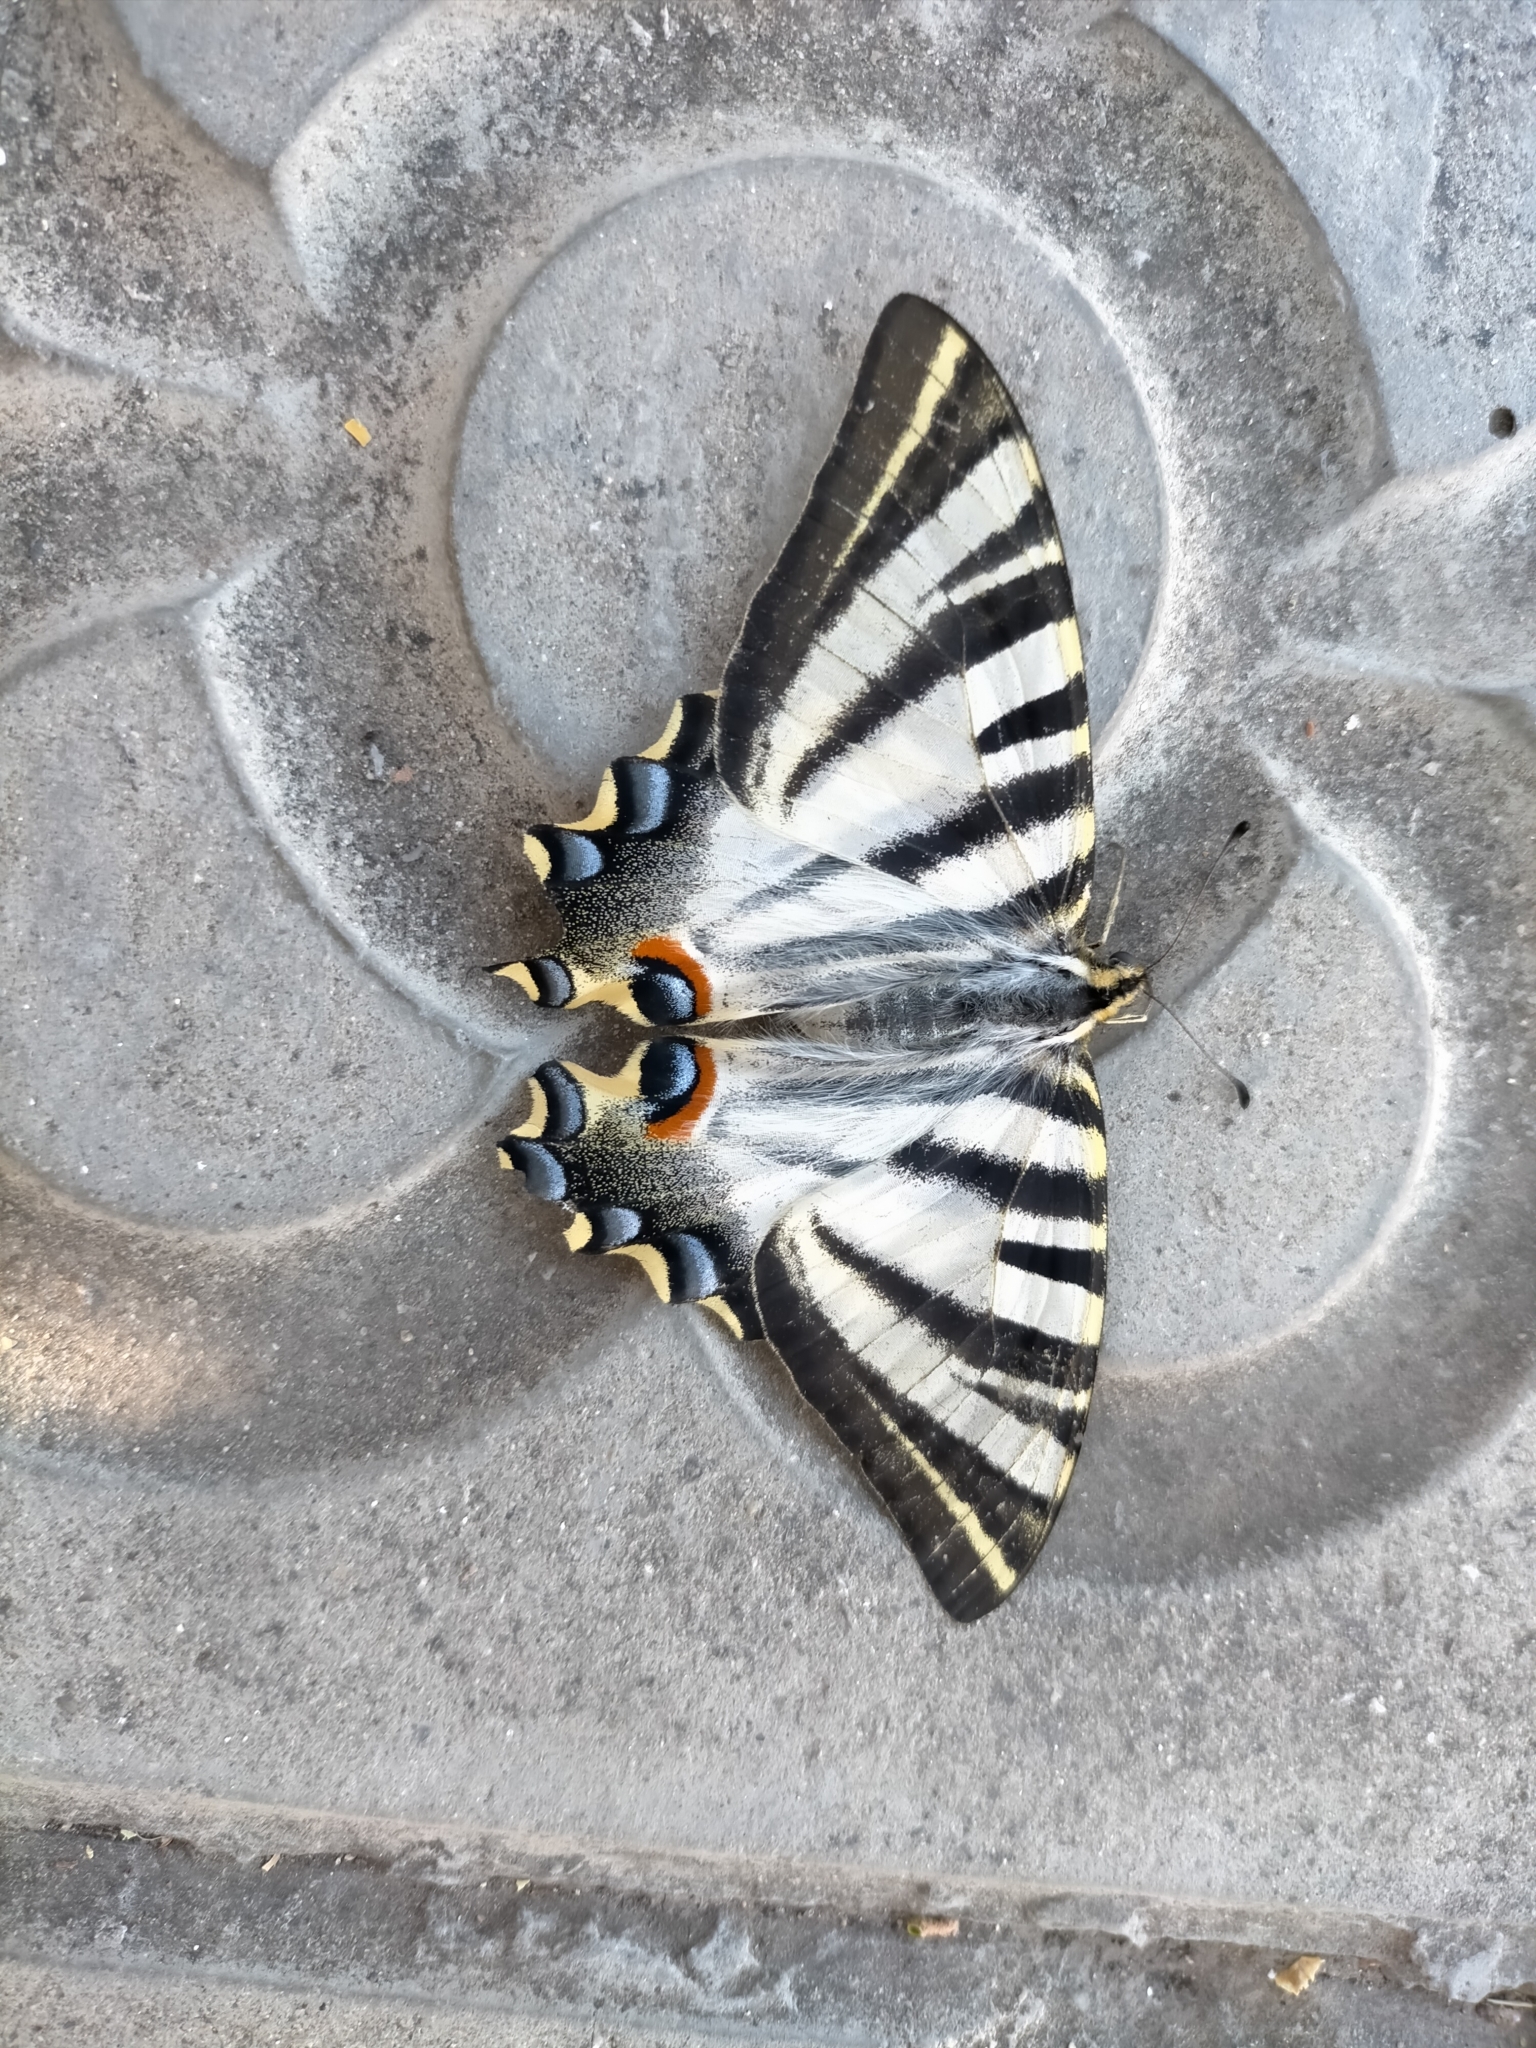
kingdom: Animalia
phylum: Arthropoda
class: Insecta
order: Lepidoptera
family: Papilionidae
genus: Iphiclides
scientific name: Iphiclides feisthamelii
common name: Iberian scarce swallowtail
